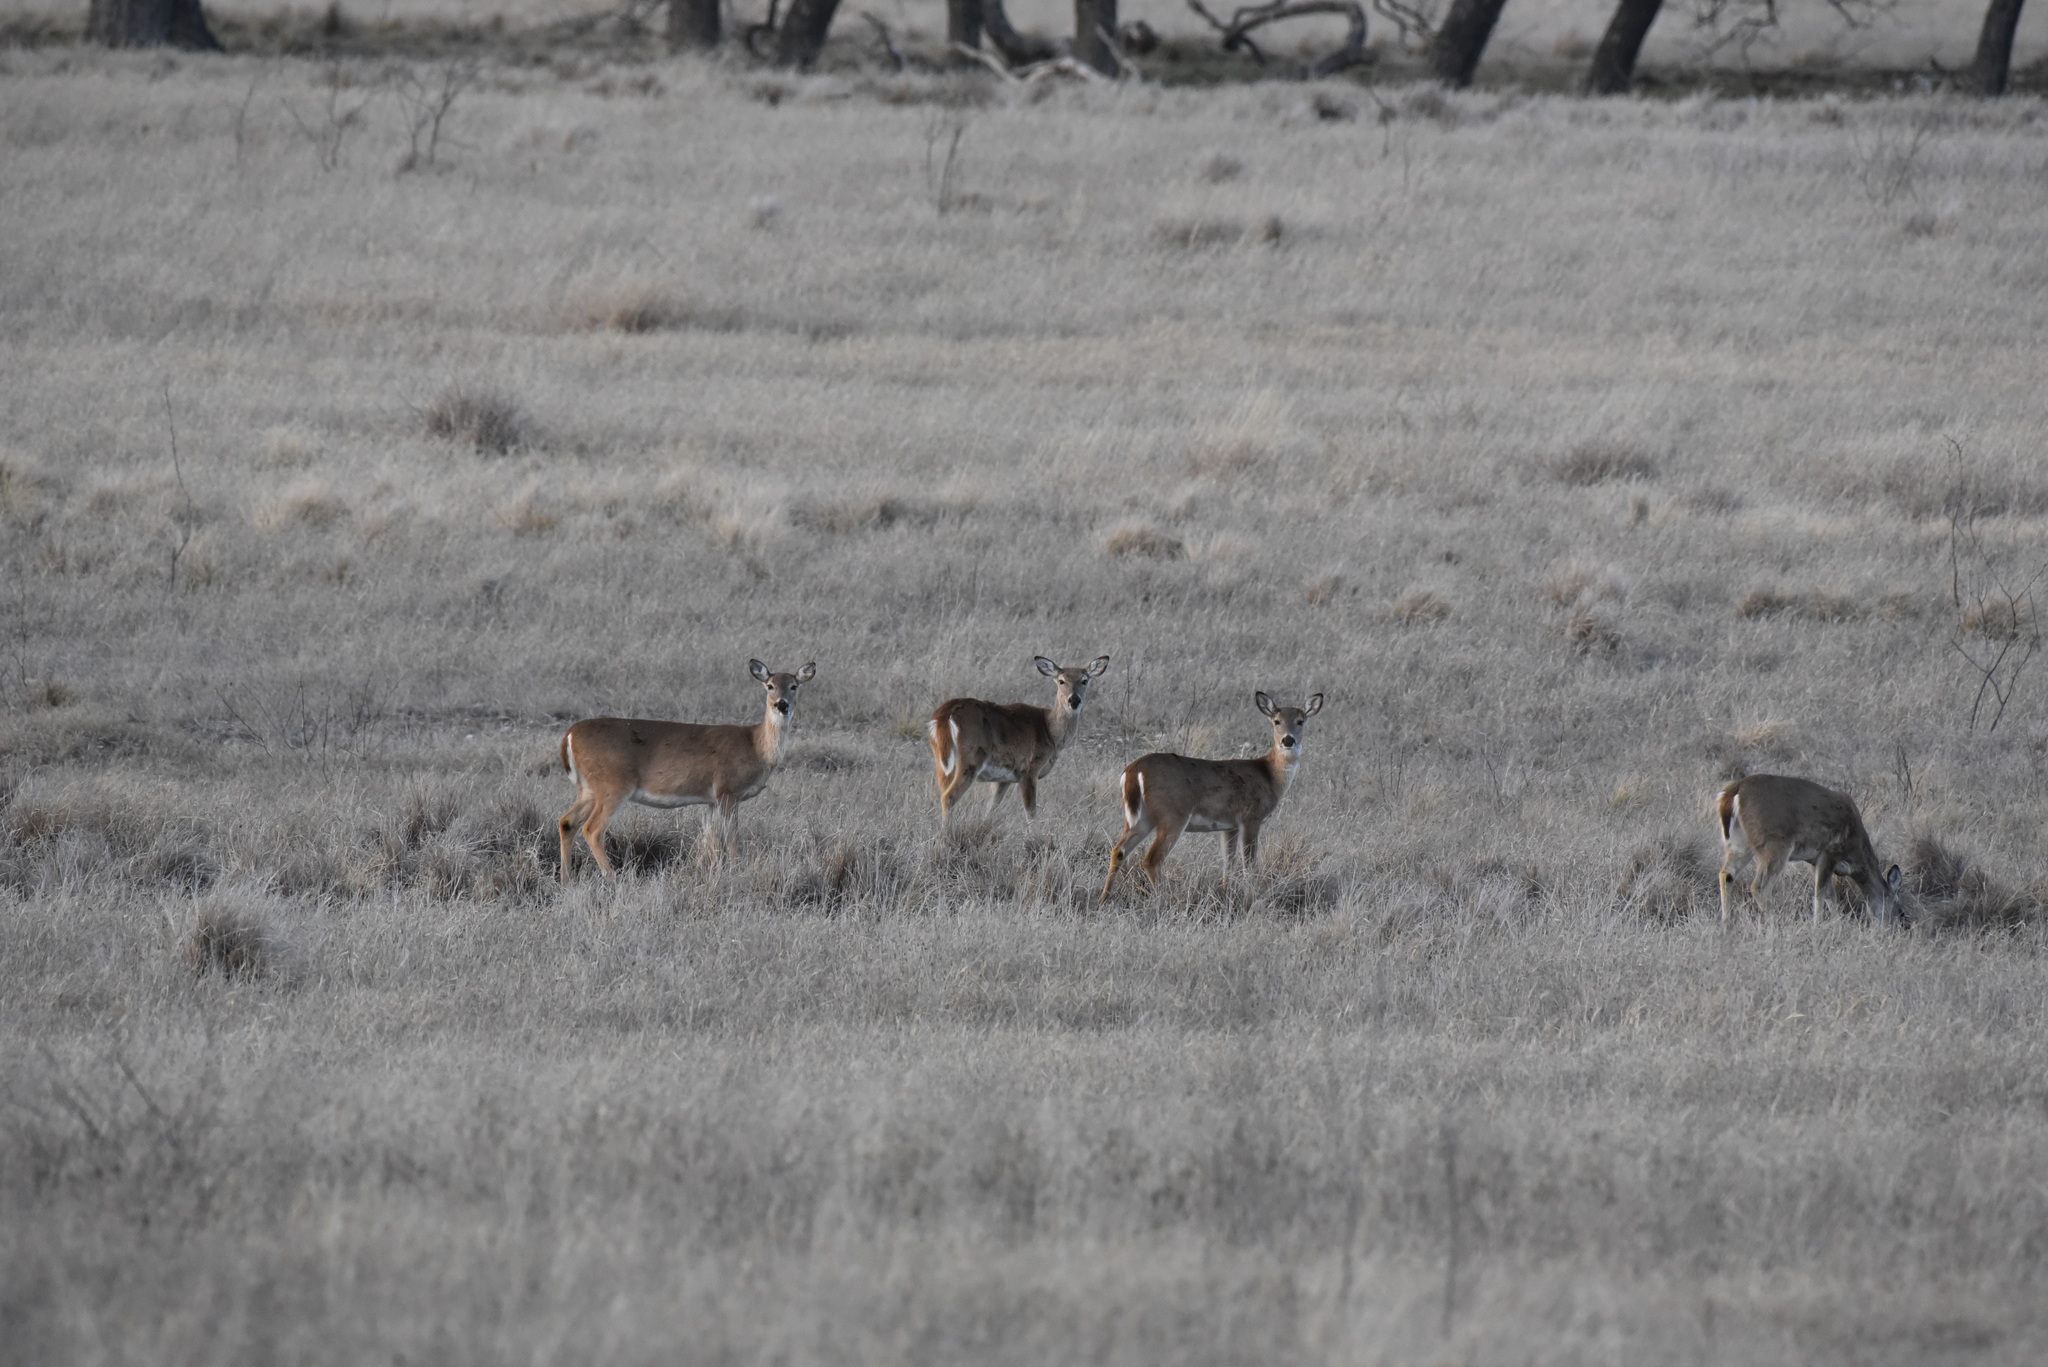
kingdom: Animalia
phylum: Chordata
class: Mammalia
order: Artiodactyla
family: Cervidae
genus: Odocoileus
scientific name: Odocoileus virginianus
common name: White-tailed deer
